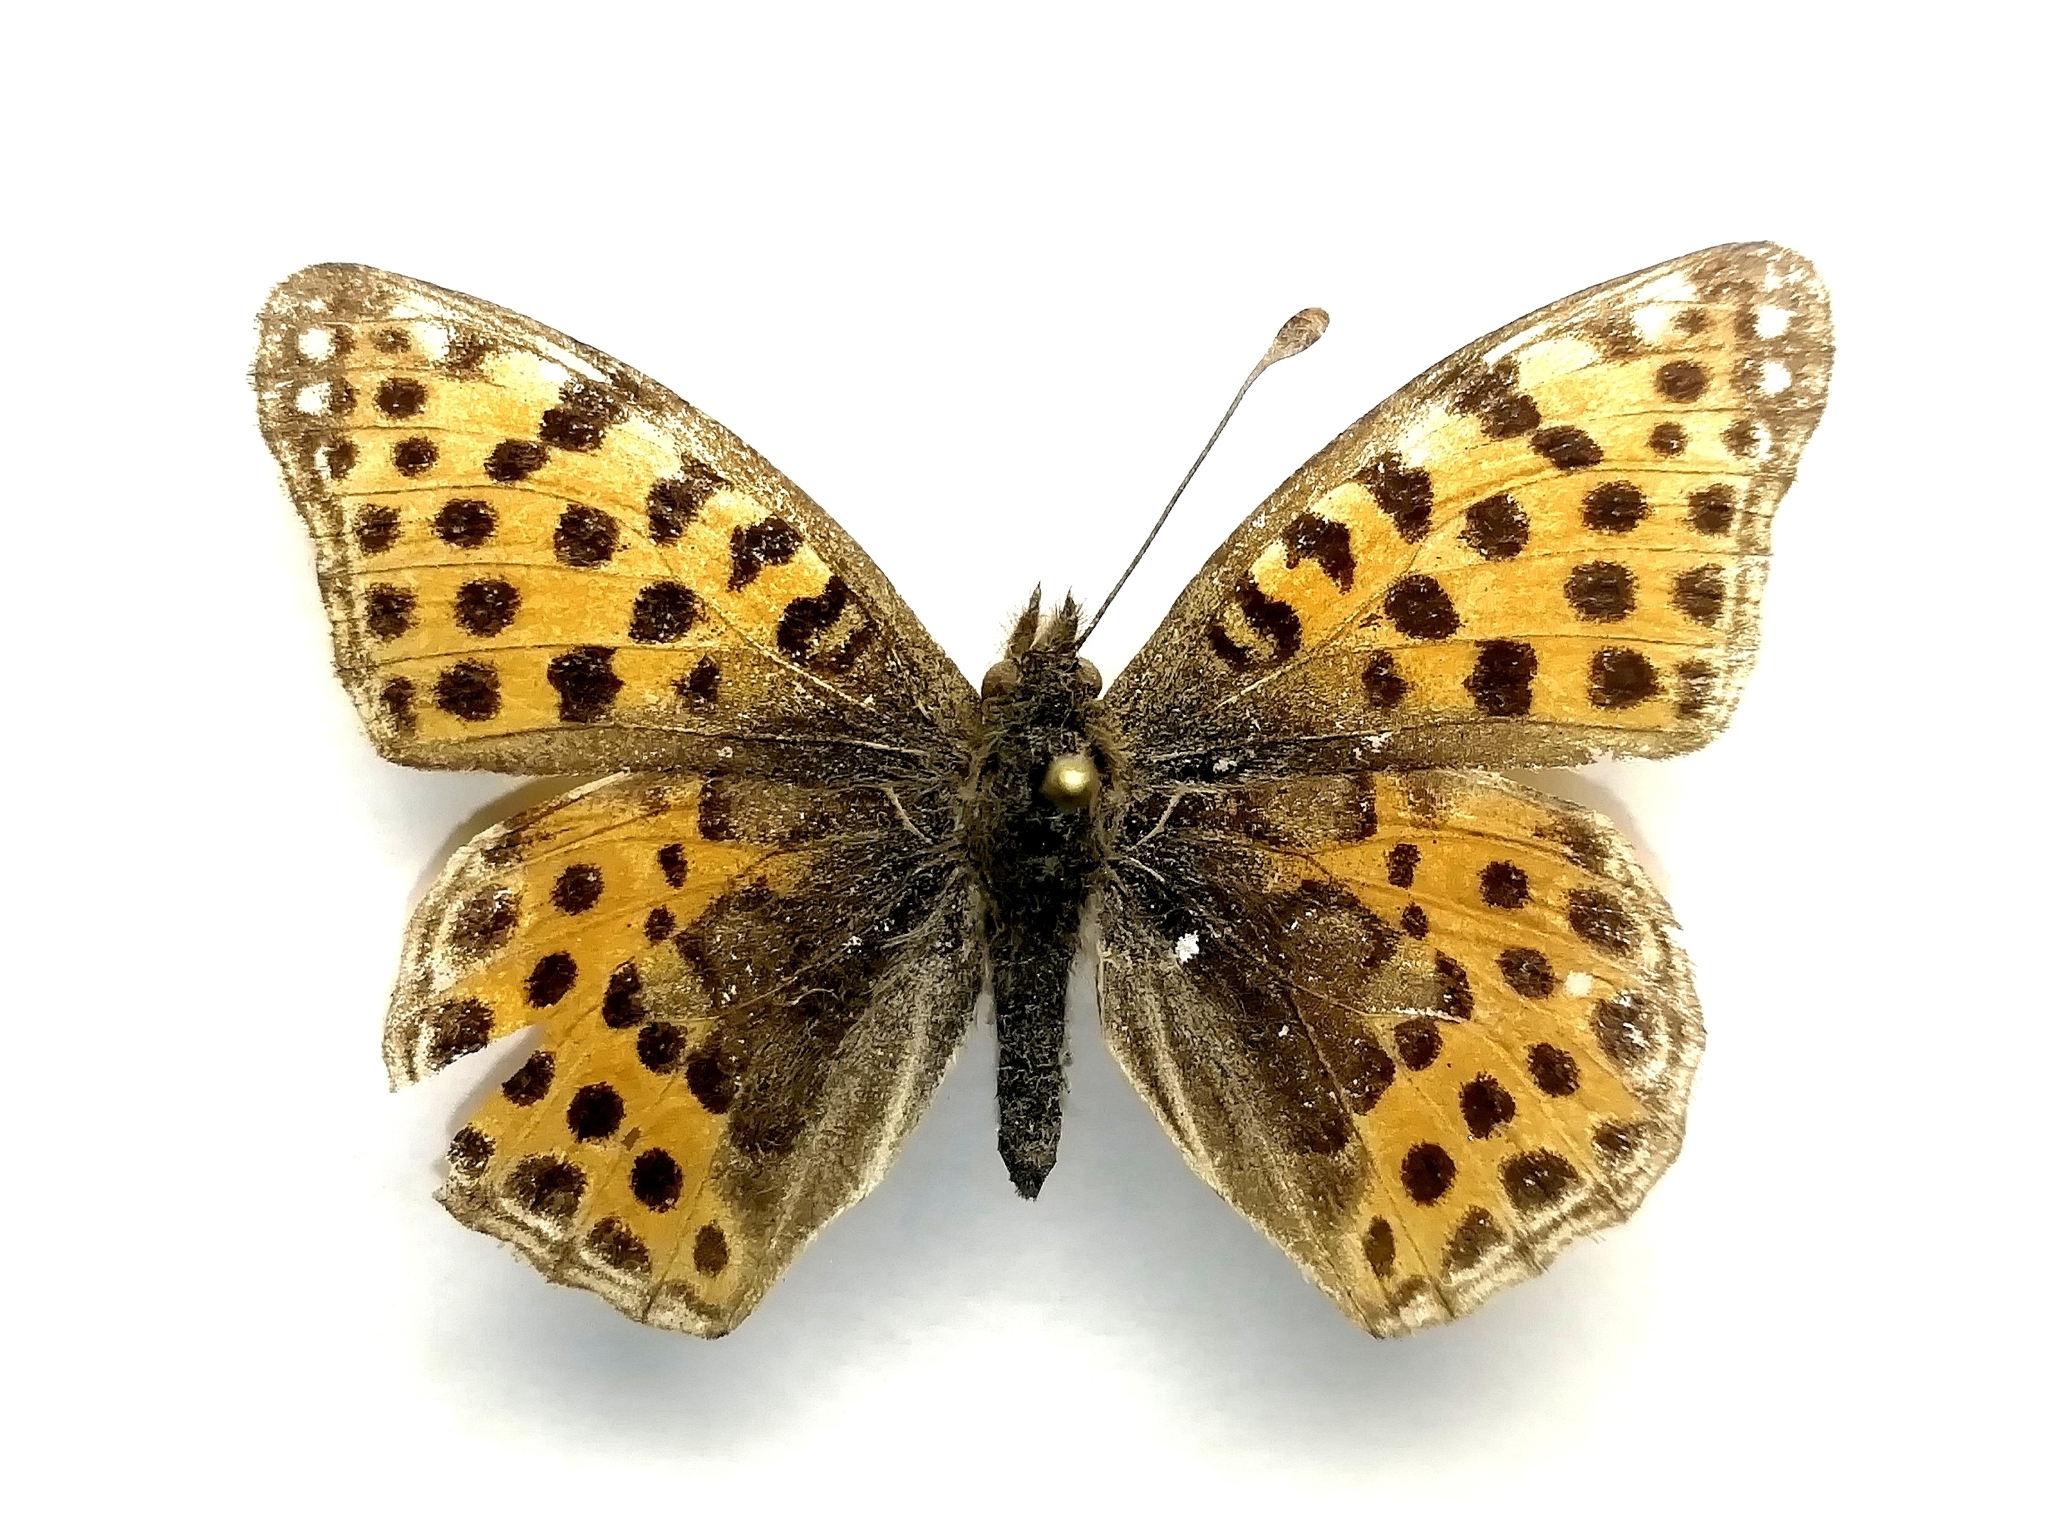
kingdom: Animalia
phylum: Arthropoda
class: Insecta
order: Lepidoptera
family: Nymphalidae
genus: Issoria
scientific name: Issoria lathonia
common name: Queen of spain fritillary
